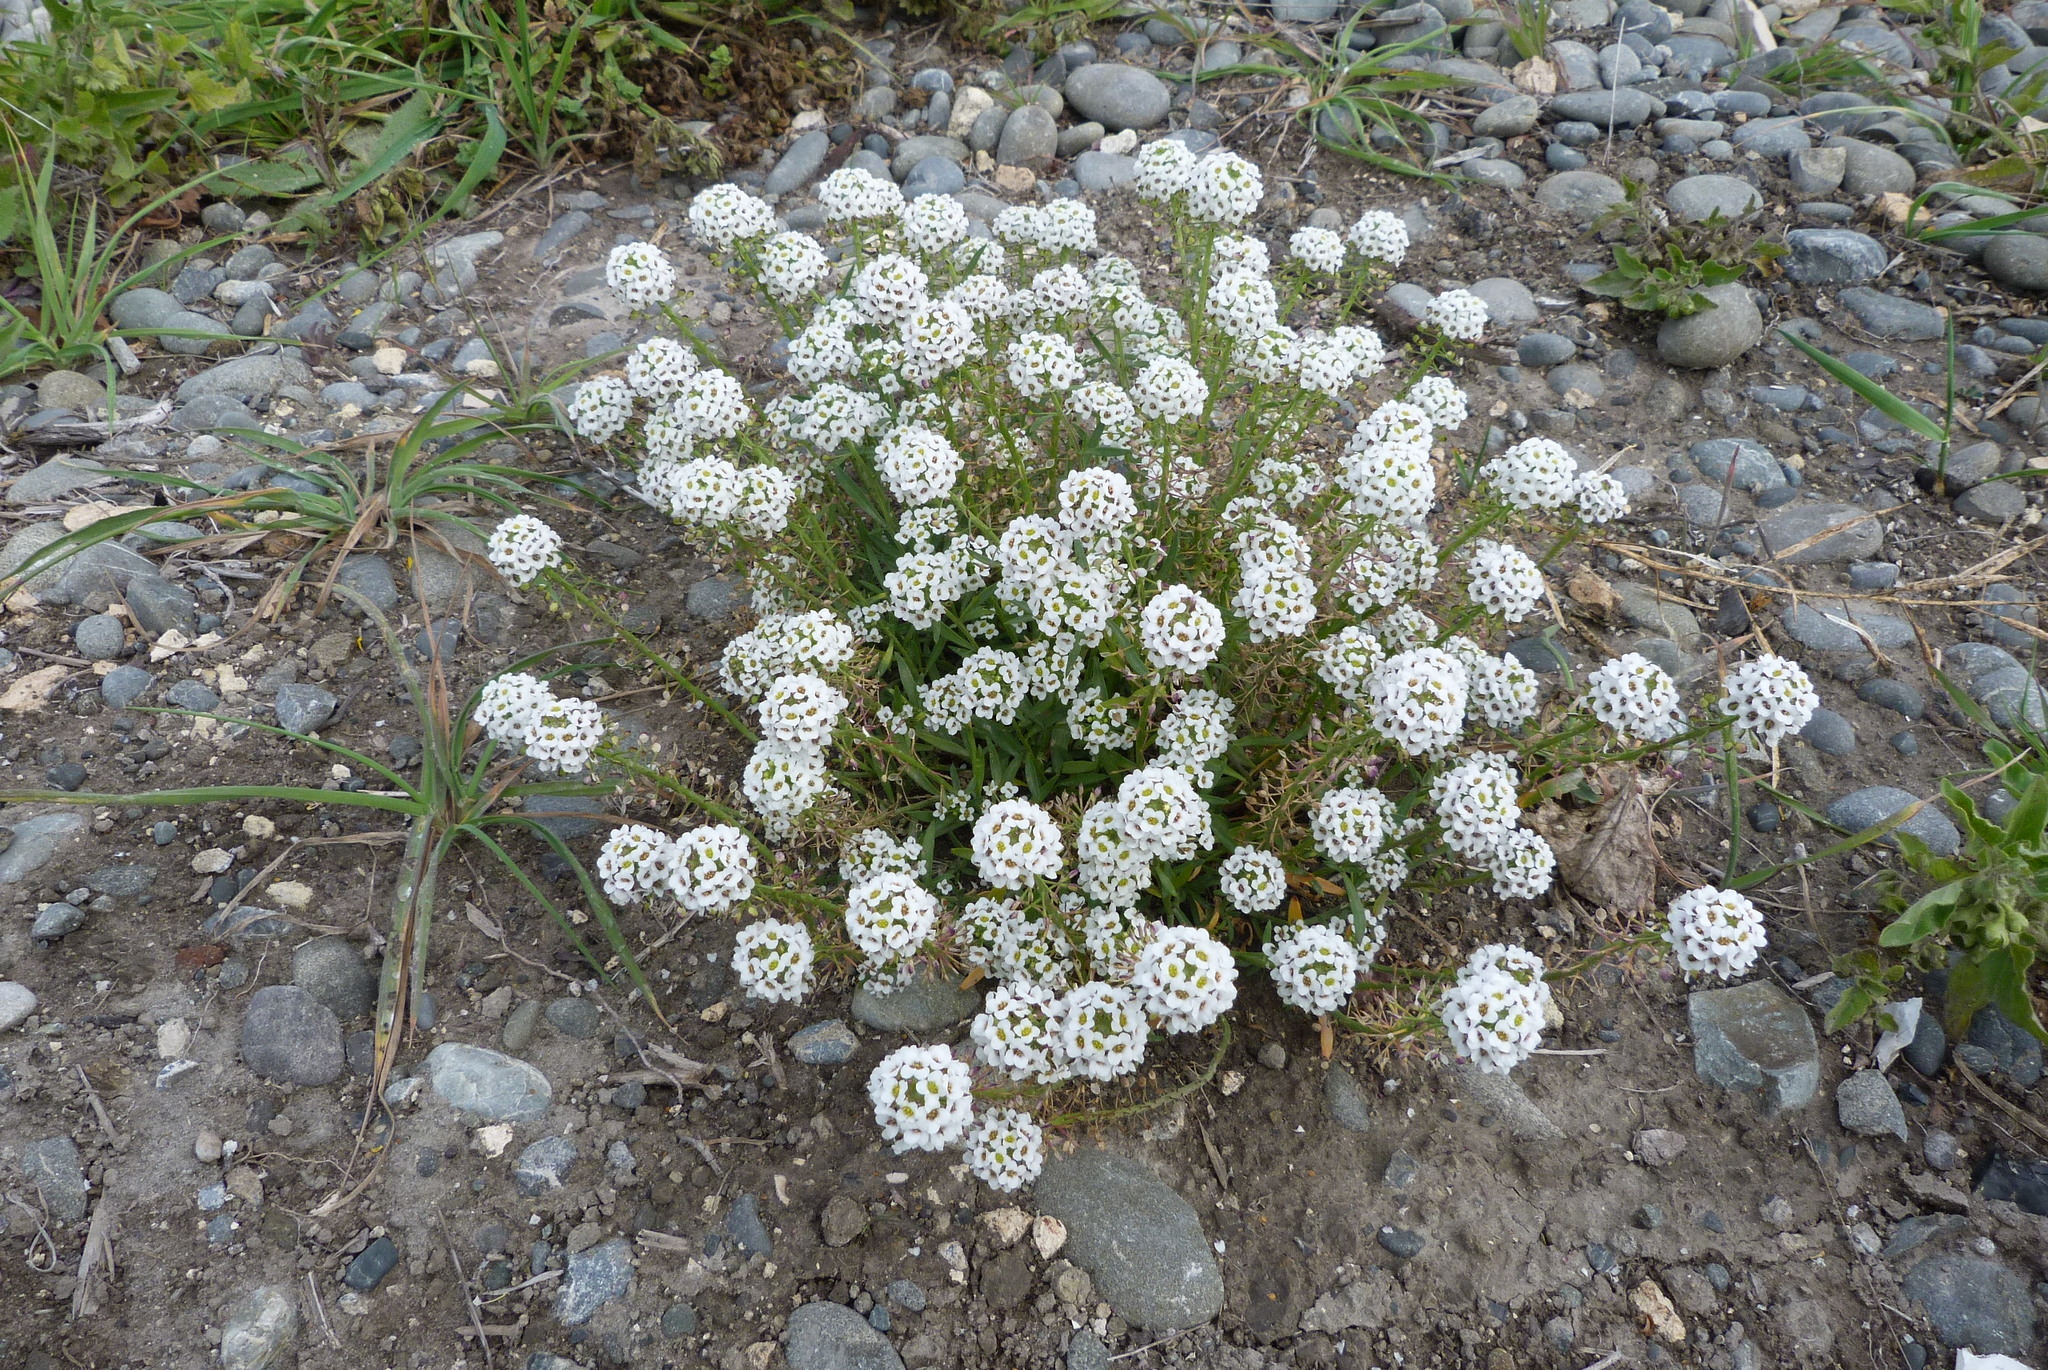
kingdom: Plantae
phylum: Tracheophyta
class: Magnoliopsida
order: Brassicales
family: Brassicaceae
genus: Lobularia
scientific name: Lobularia maritima
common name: Sweet alison
